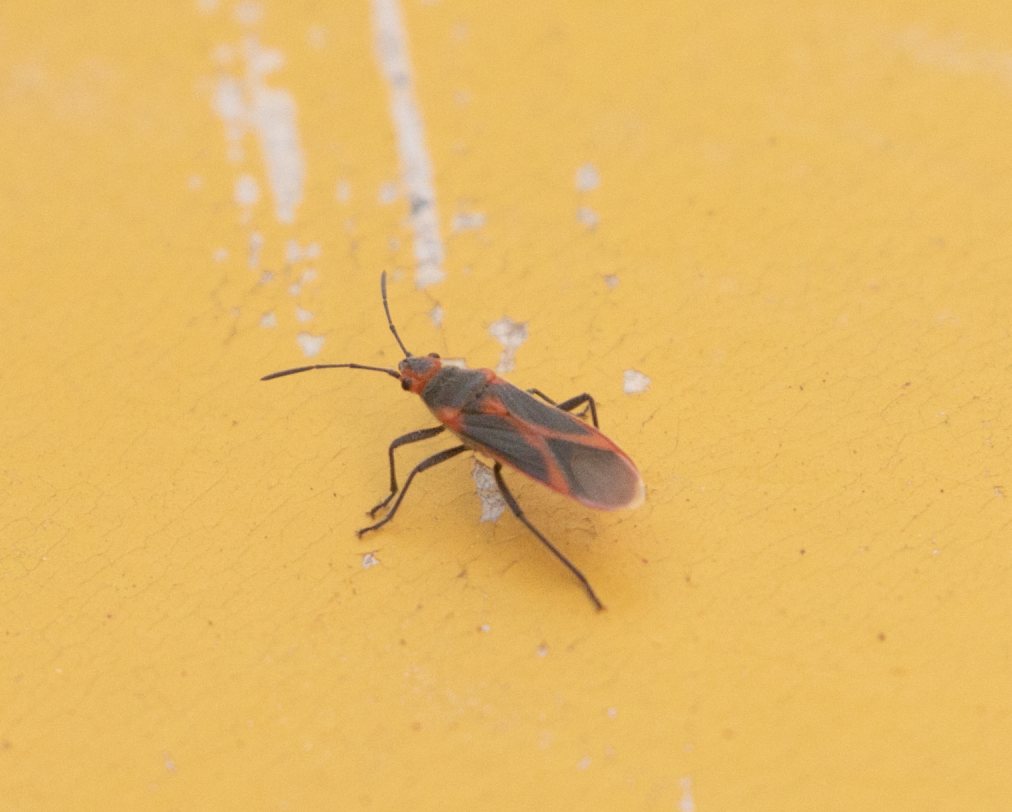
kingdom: Animalia
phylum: Arthropoda
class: Insecta
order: Hemiptera
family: Lygaeidae
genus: Caenocoris
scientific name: Caenocoris nerii
